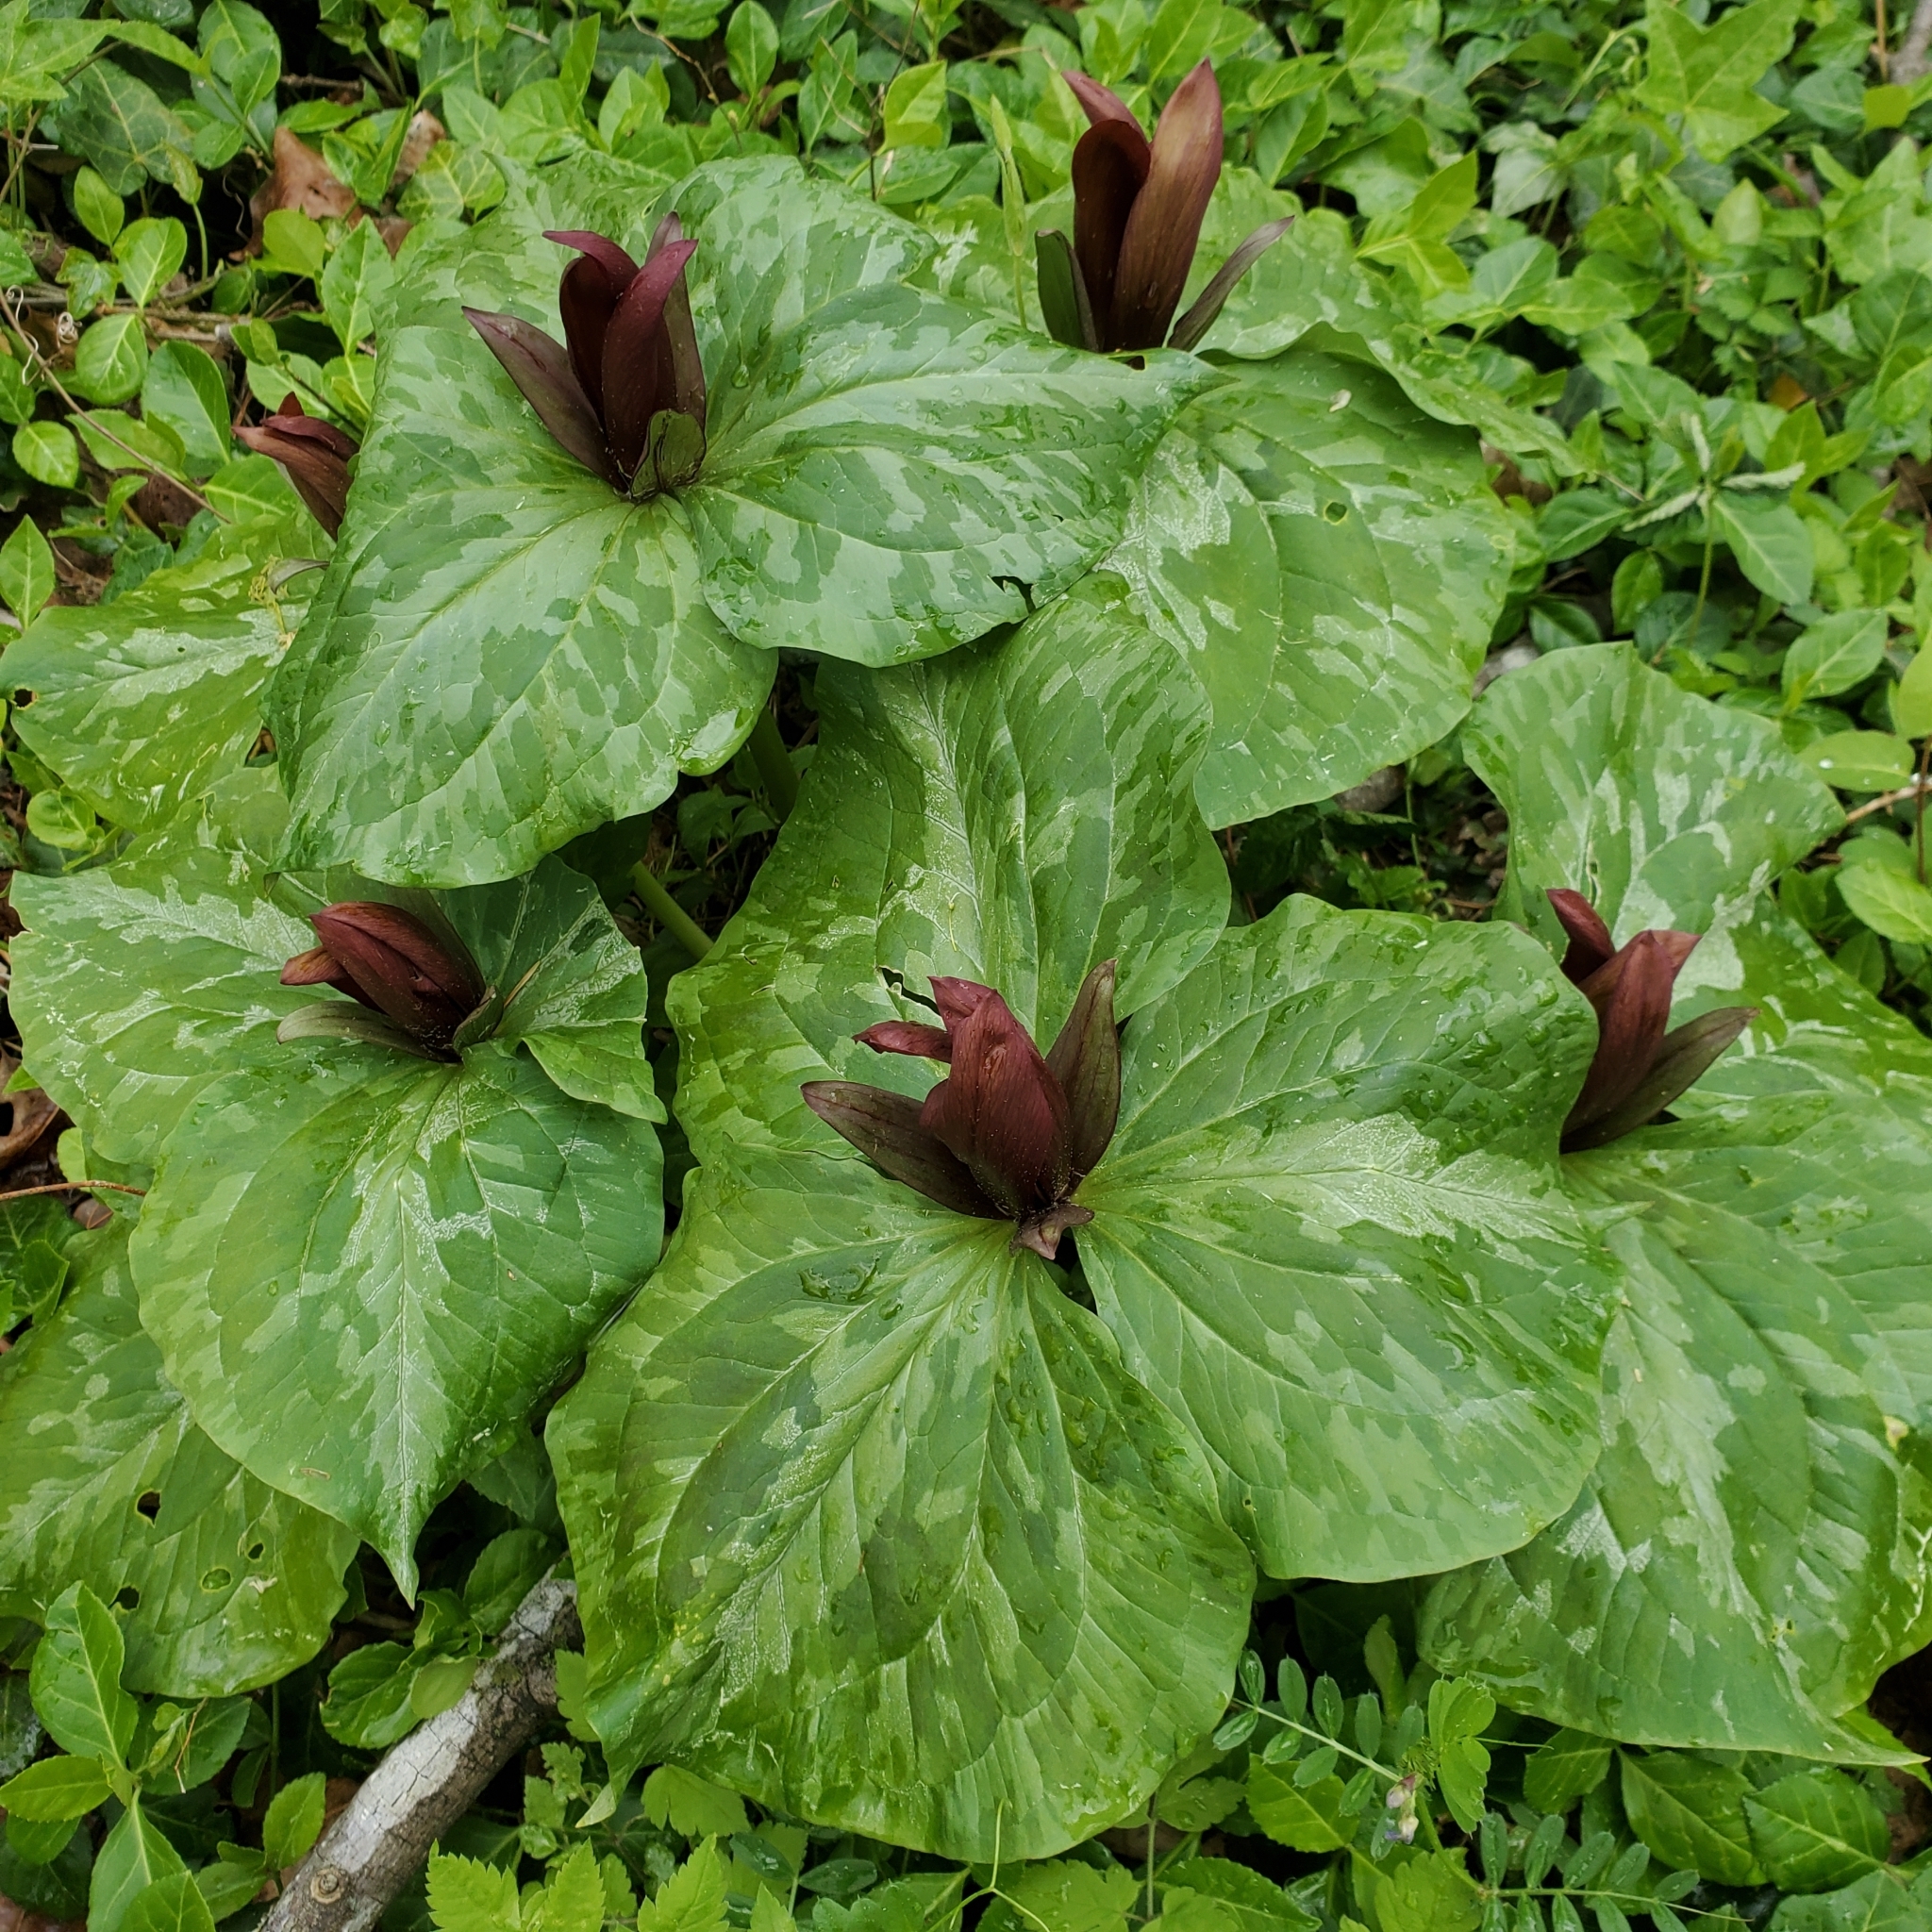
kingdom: Plantae
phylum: Tracheophyta
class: Liliopsida
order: Liliales
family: Melanthiaceae
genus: Trillium
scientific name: Trillium cuneatum
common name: Cuneate trillium
